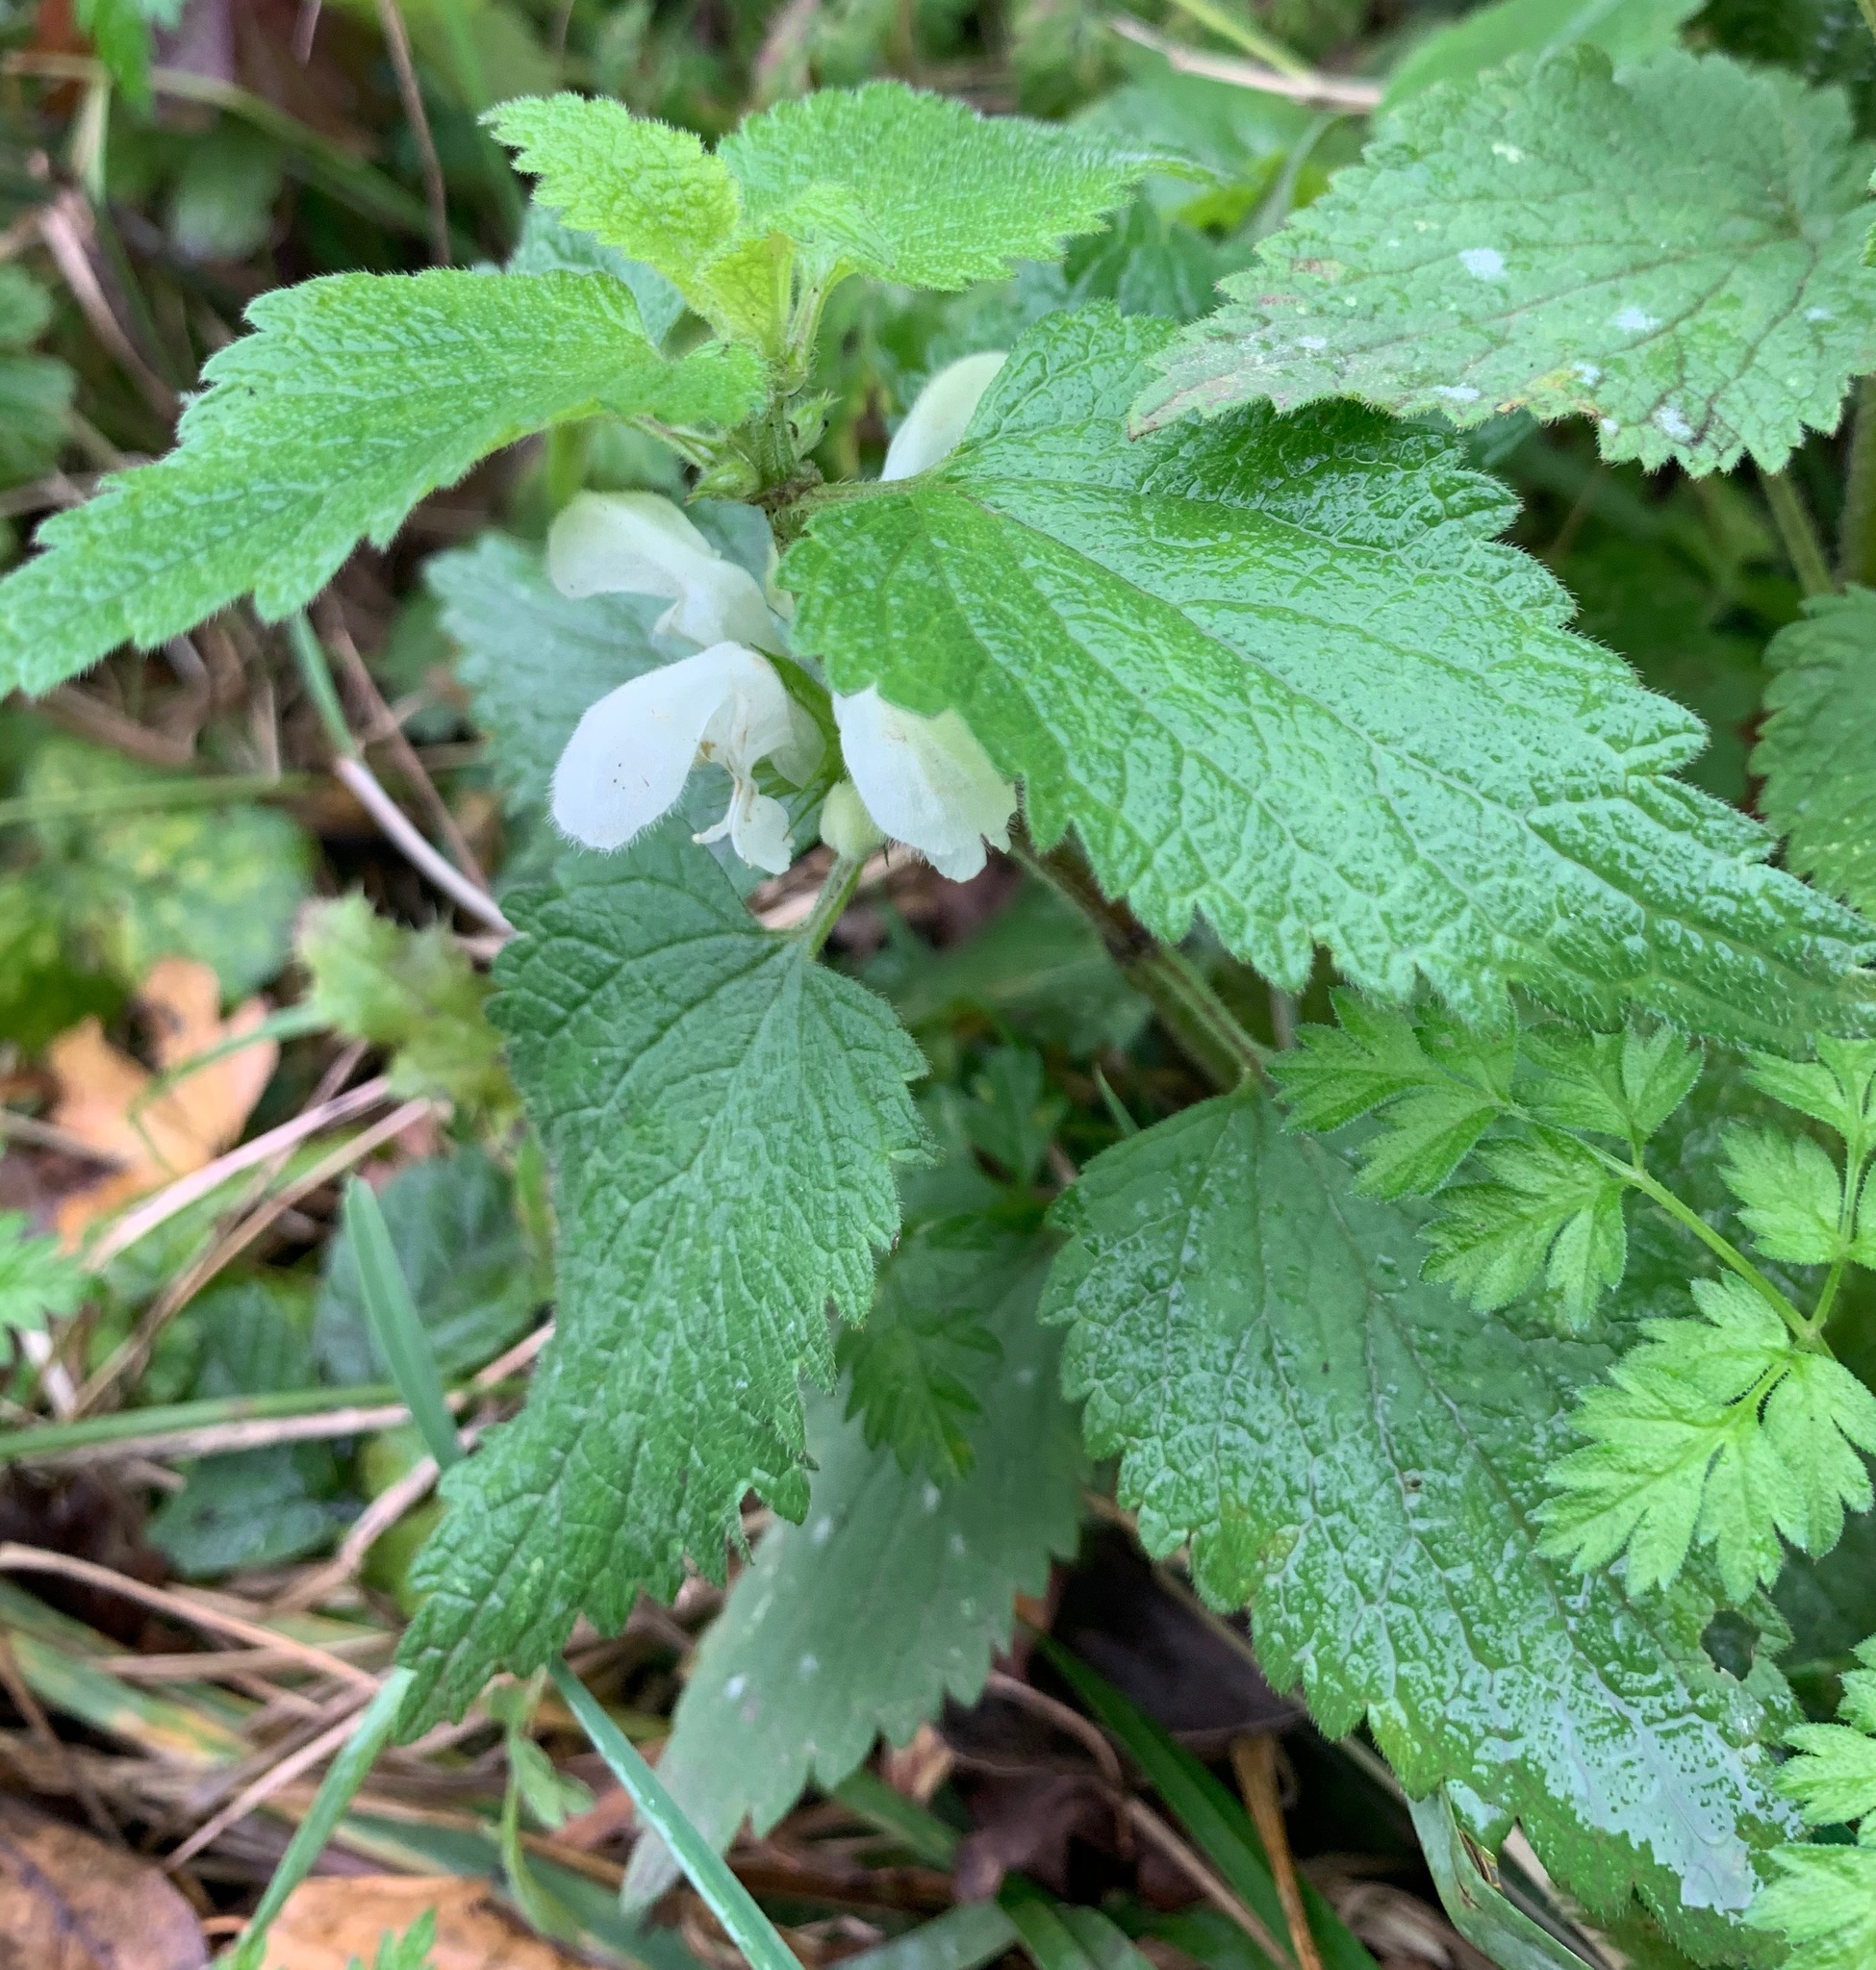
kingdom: Plantae
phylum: Tracheophyta
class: Magnoliopsida
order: Lamiales
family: Lamiaceae
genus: Lamium
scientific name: Lamium album
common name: White dead-nettle
